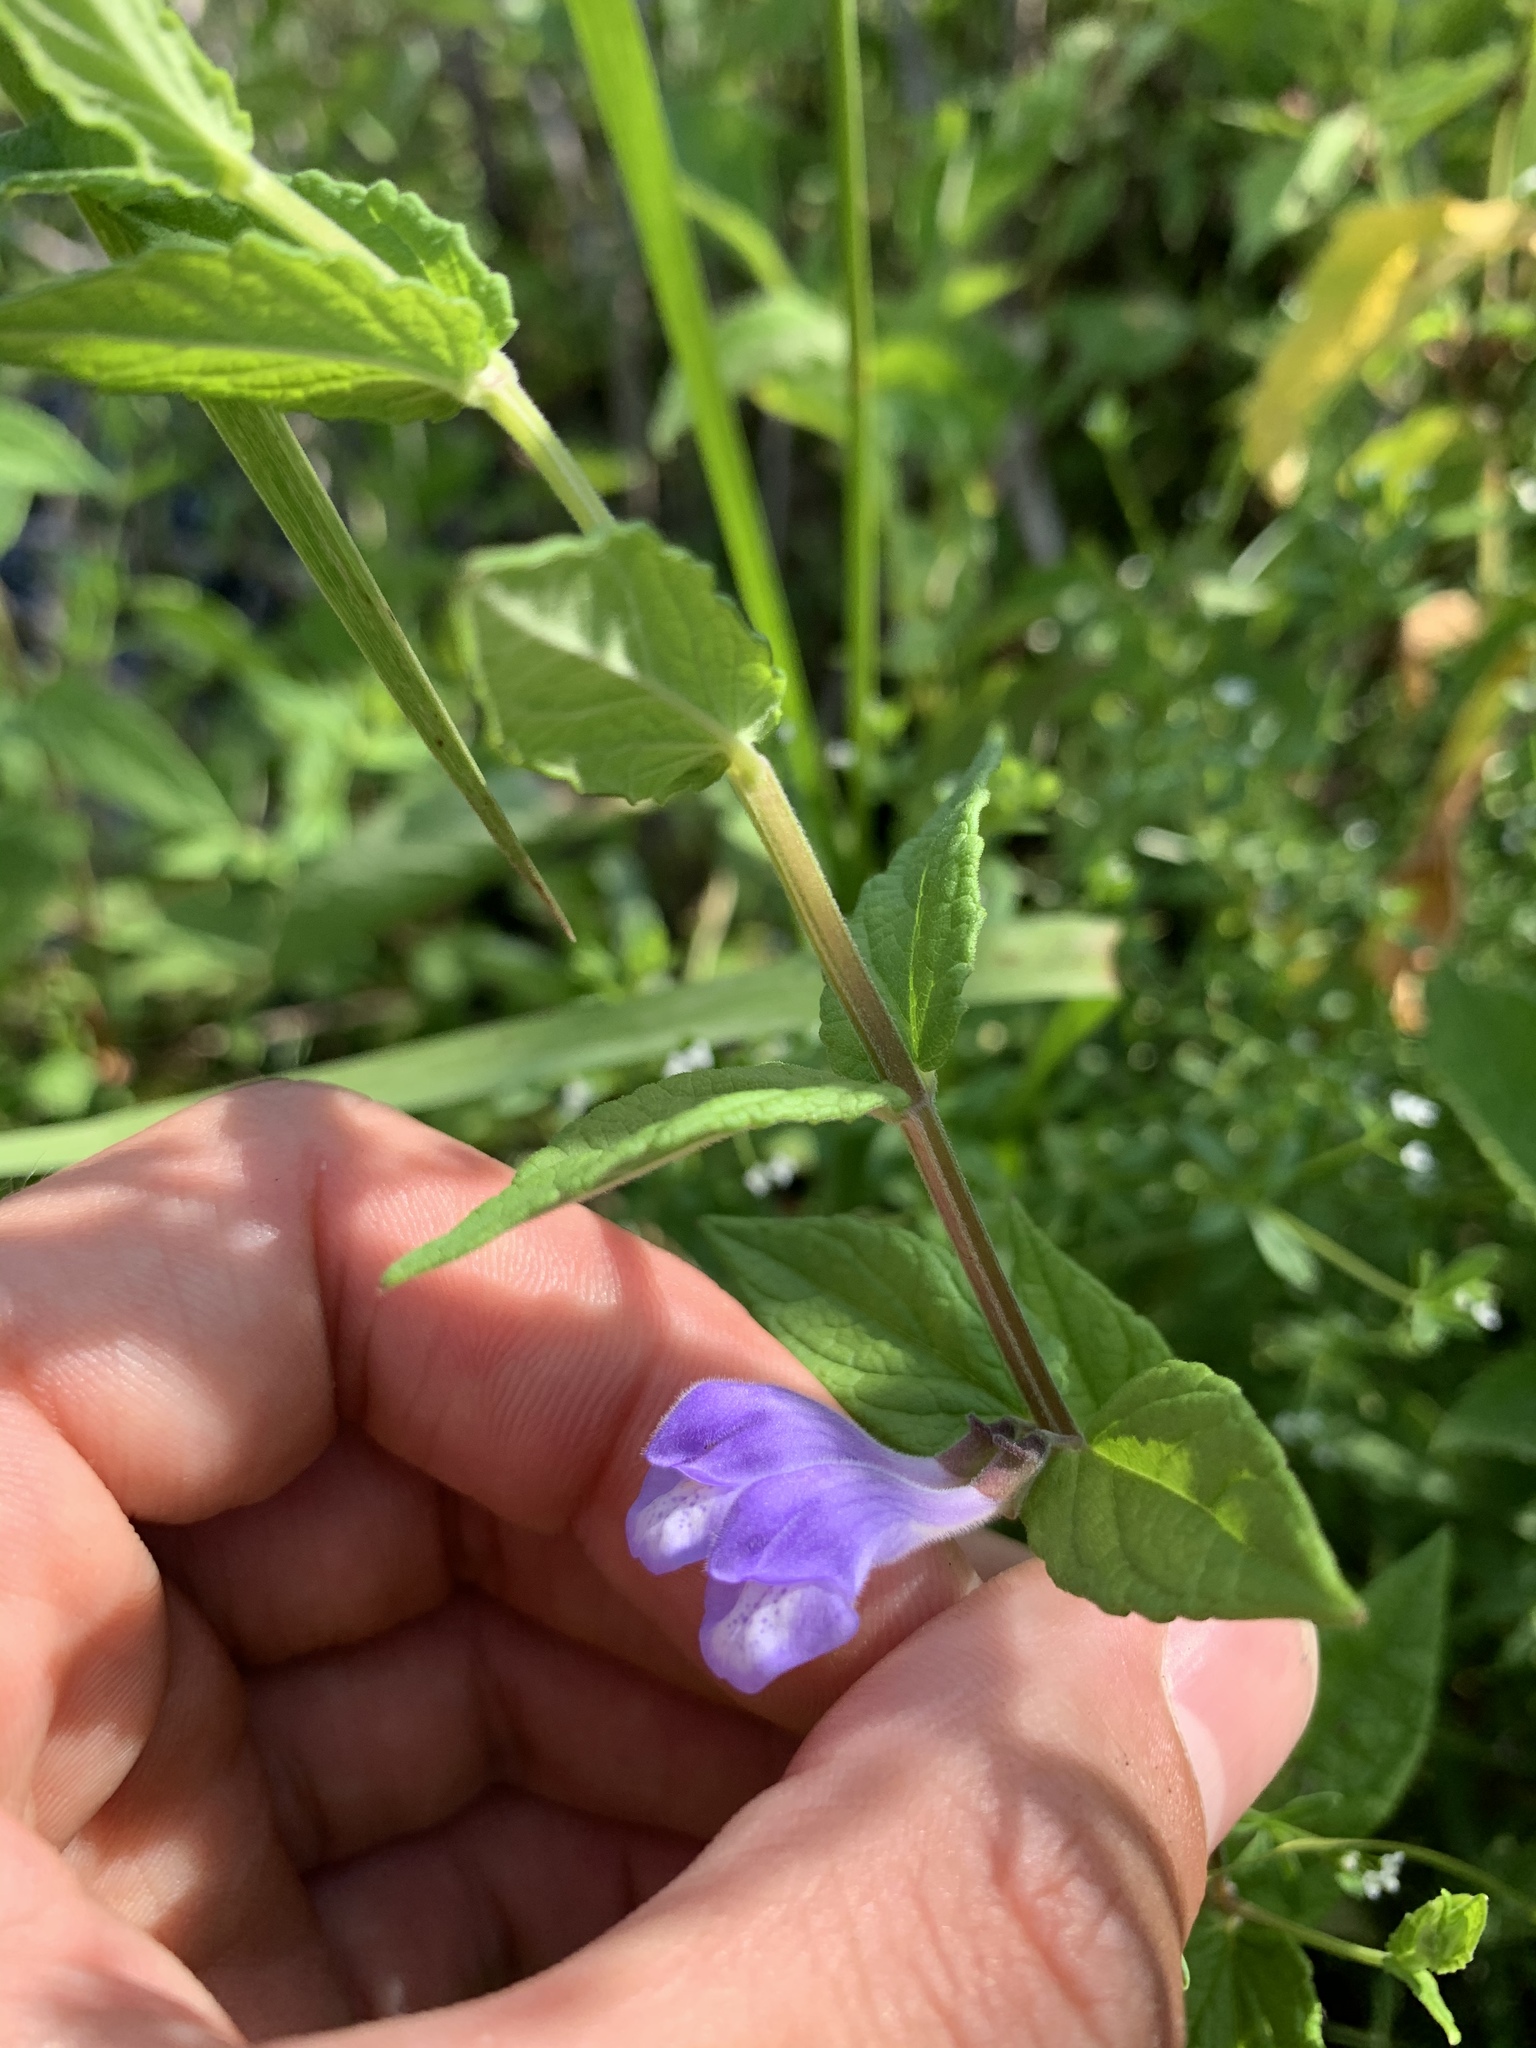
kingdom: Plantae
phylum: Tracheophyta
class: Magnoliopsida
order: Lamiales
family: Lamiaceae
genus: Scutellaria
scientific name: Scutellaria galericulata
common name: Skullcap
